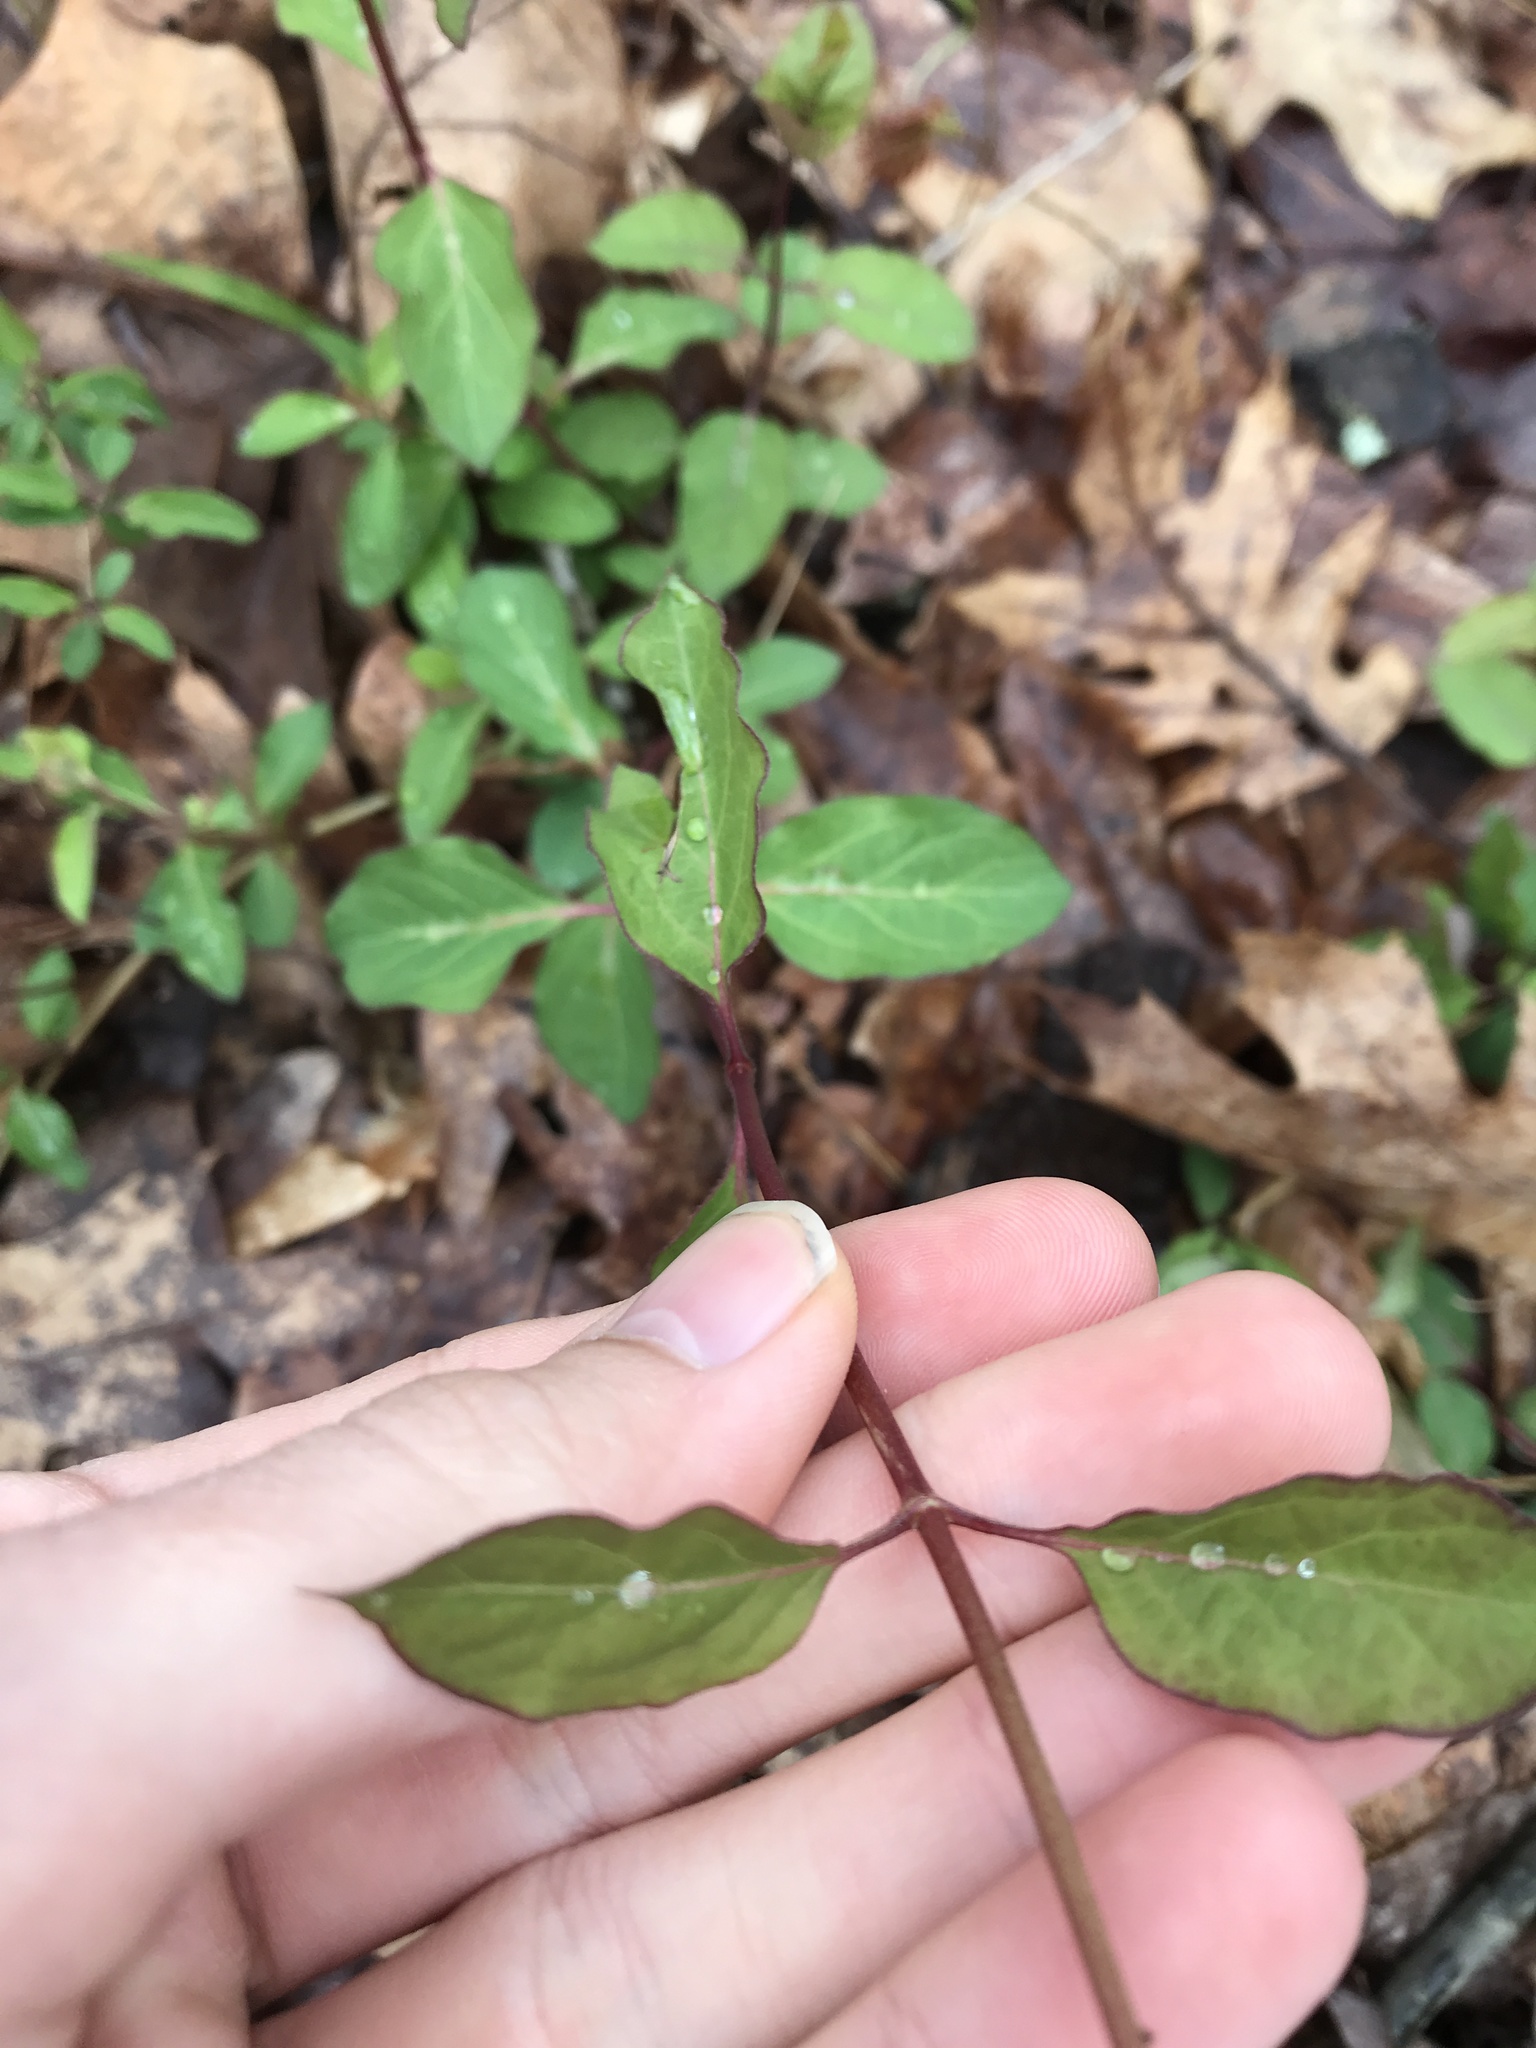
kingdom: Plantae
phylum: Tracheophyta
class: Magnoliopsida
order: Dipsacales
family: Caprifoliaceae
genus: Lonicera
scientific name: Lonicera japonica
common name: Japanese honeysuckle
